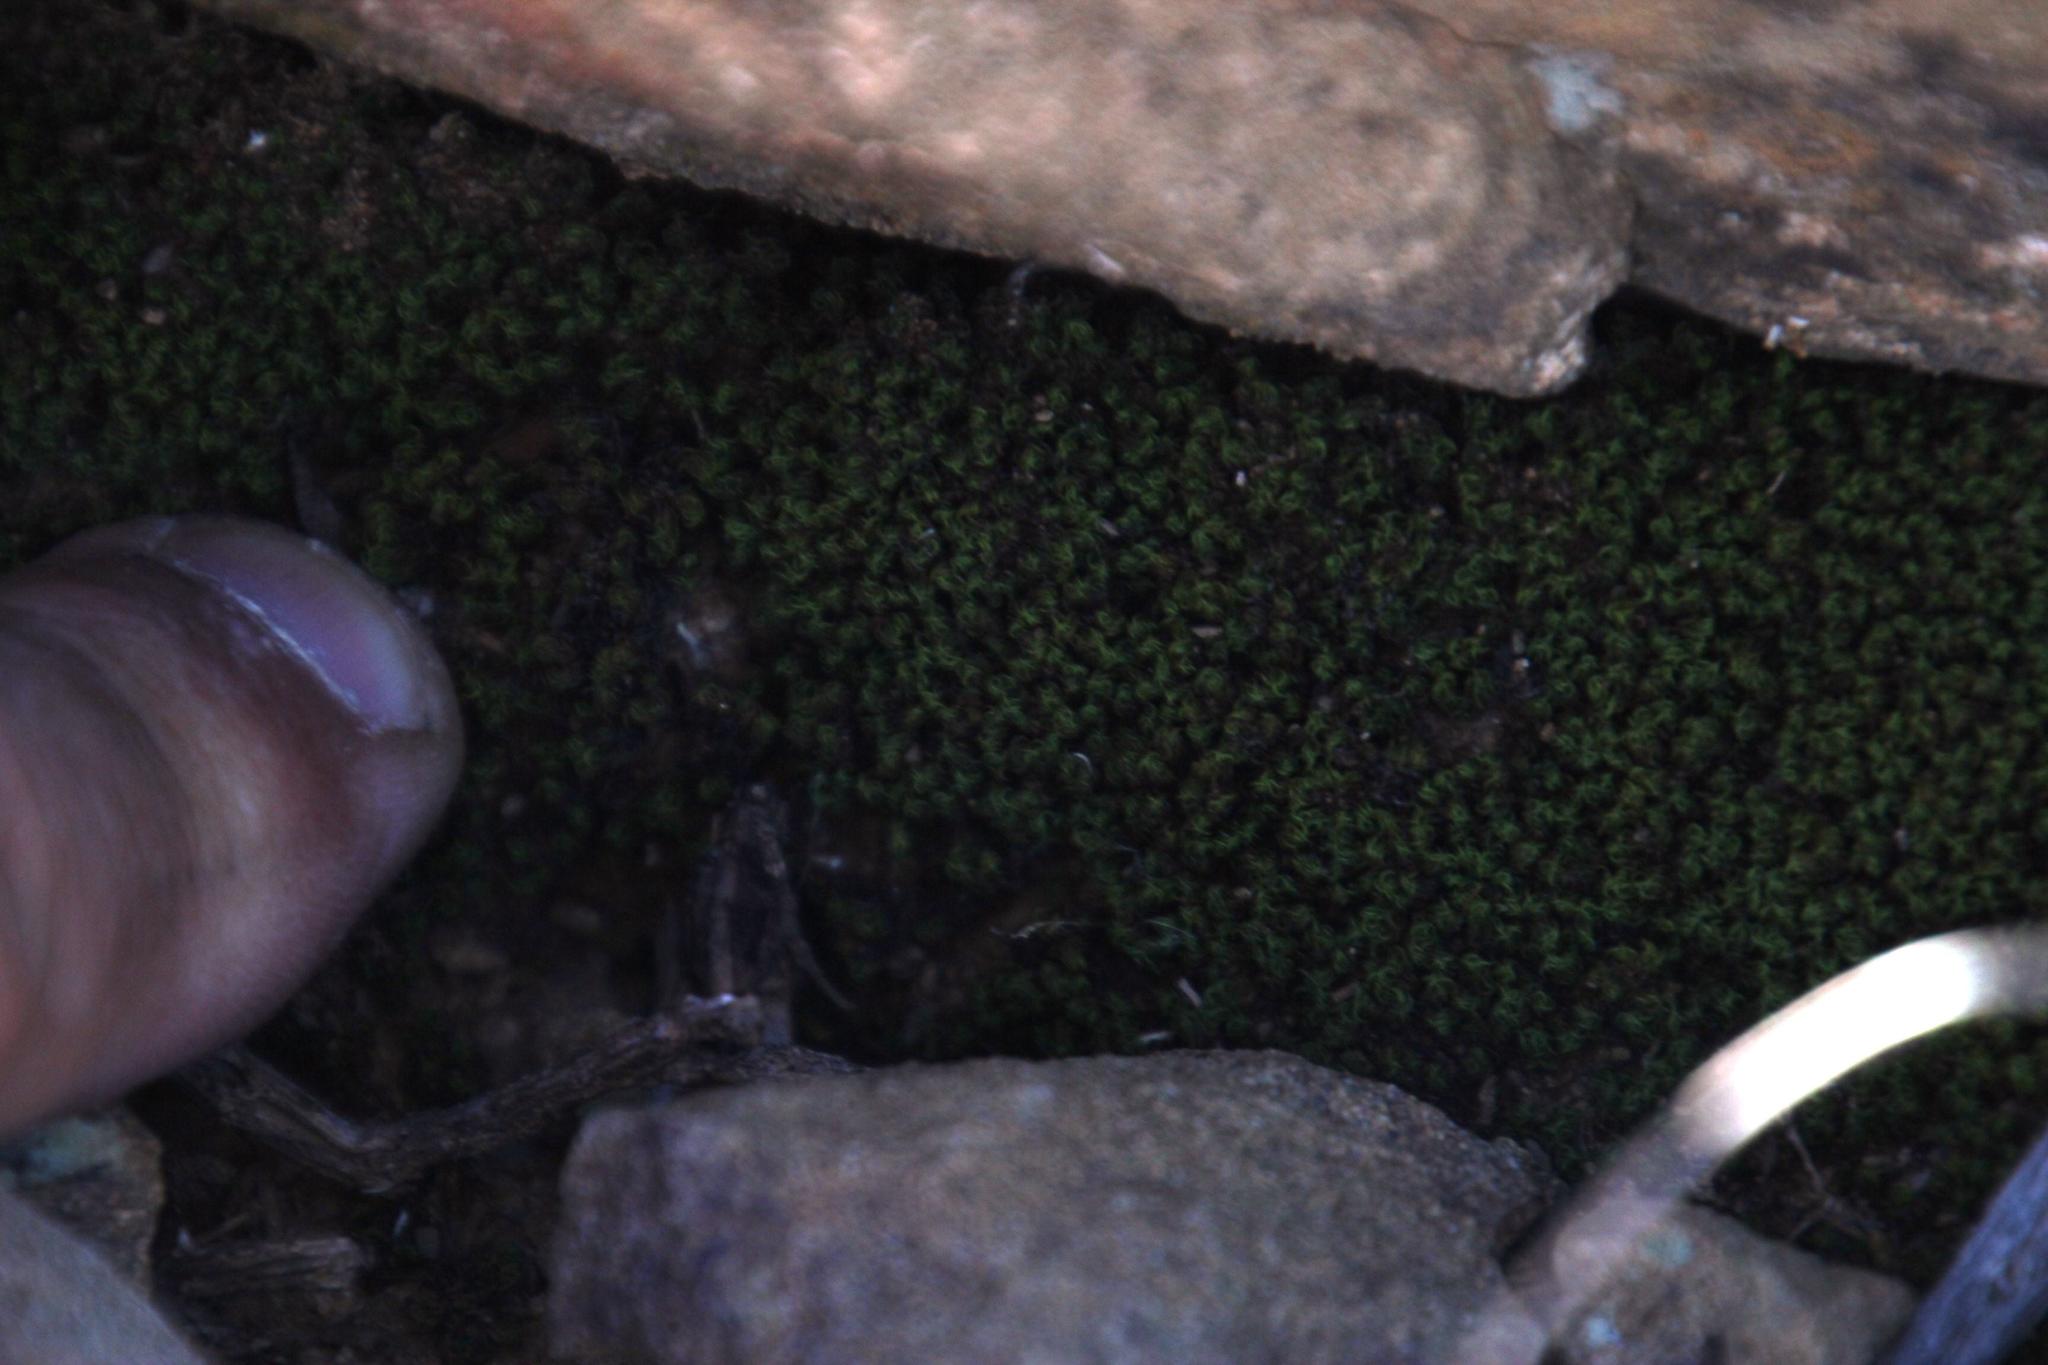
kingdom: Plantae
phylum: Bryophyta
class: Bryopsida
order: Pottiales
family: Pottiaceae
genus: Trichostomum
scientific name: Trichostomum brachydontium
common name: Variable crisp-moss
